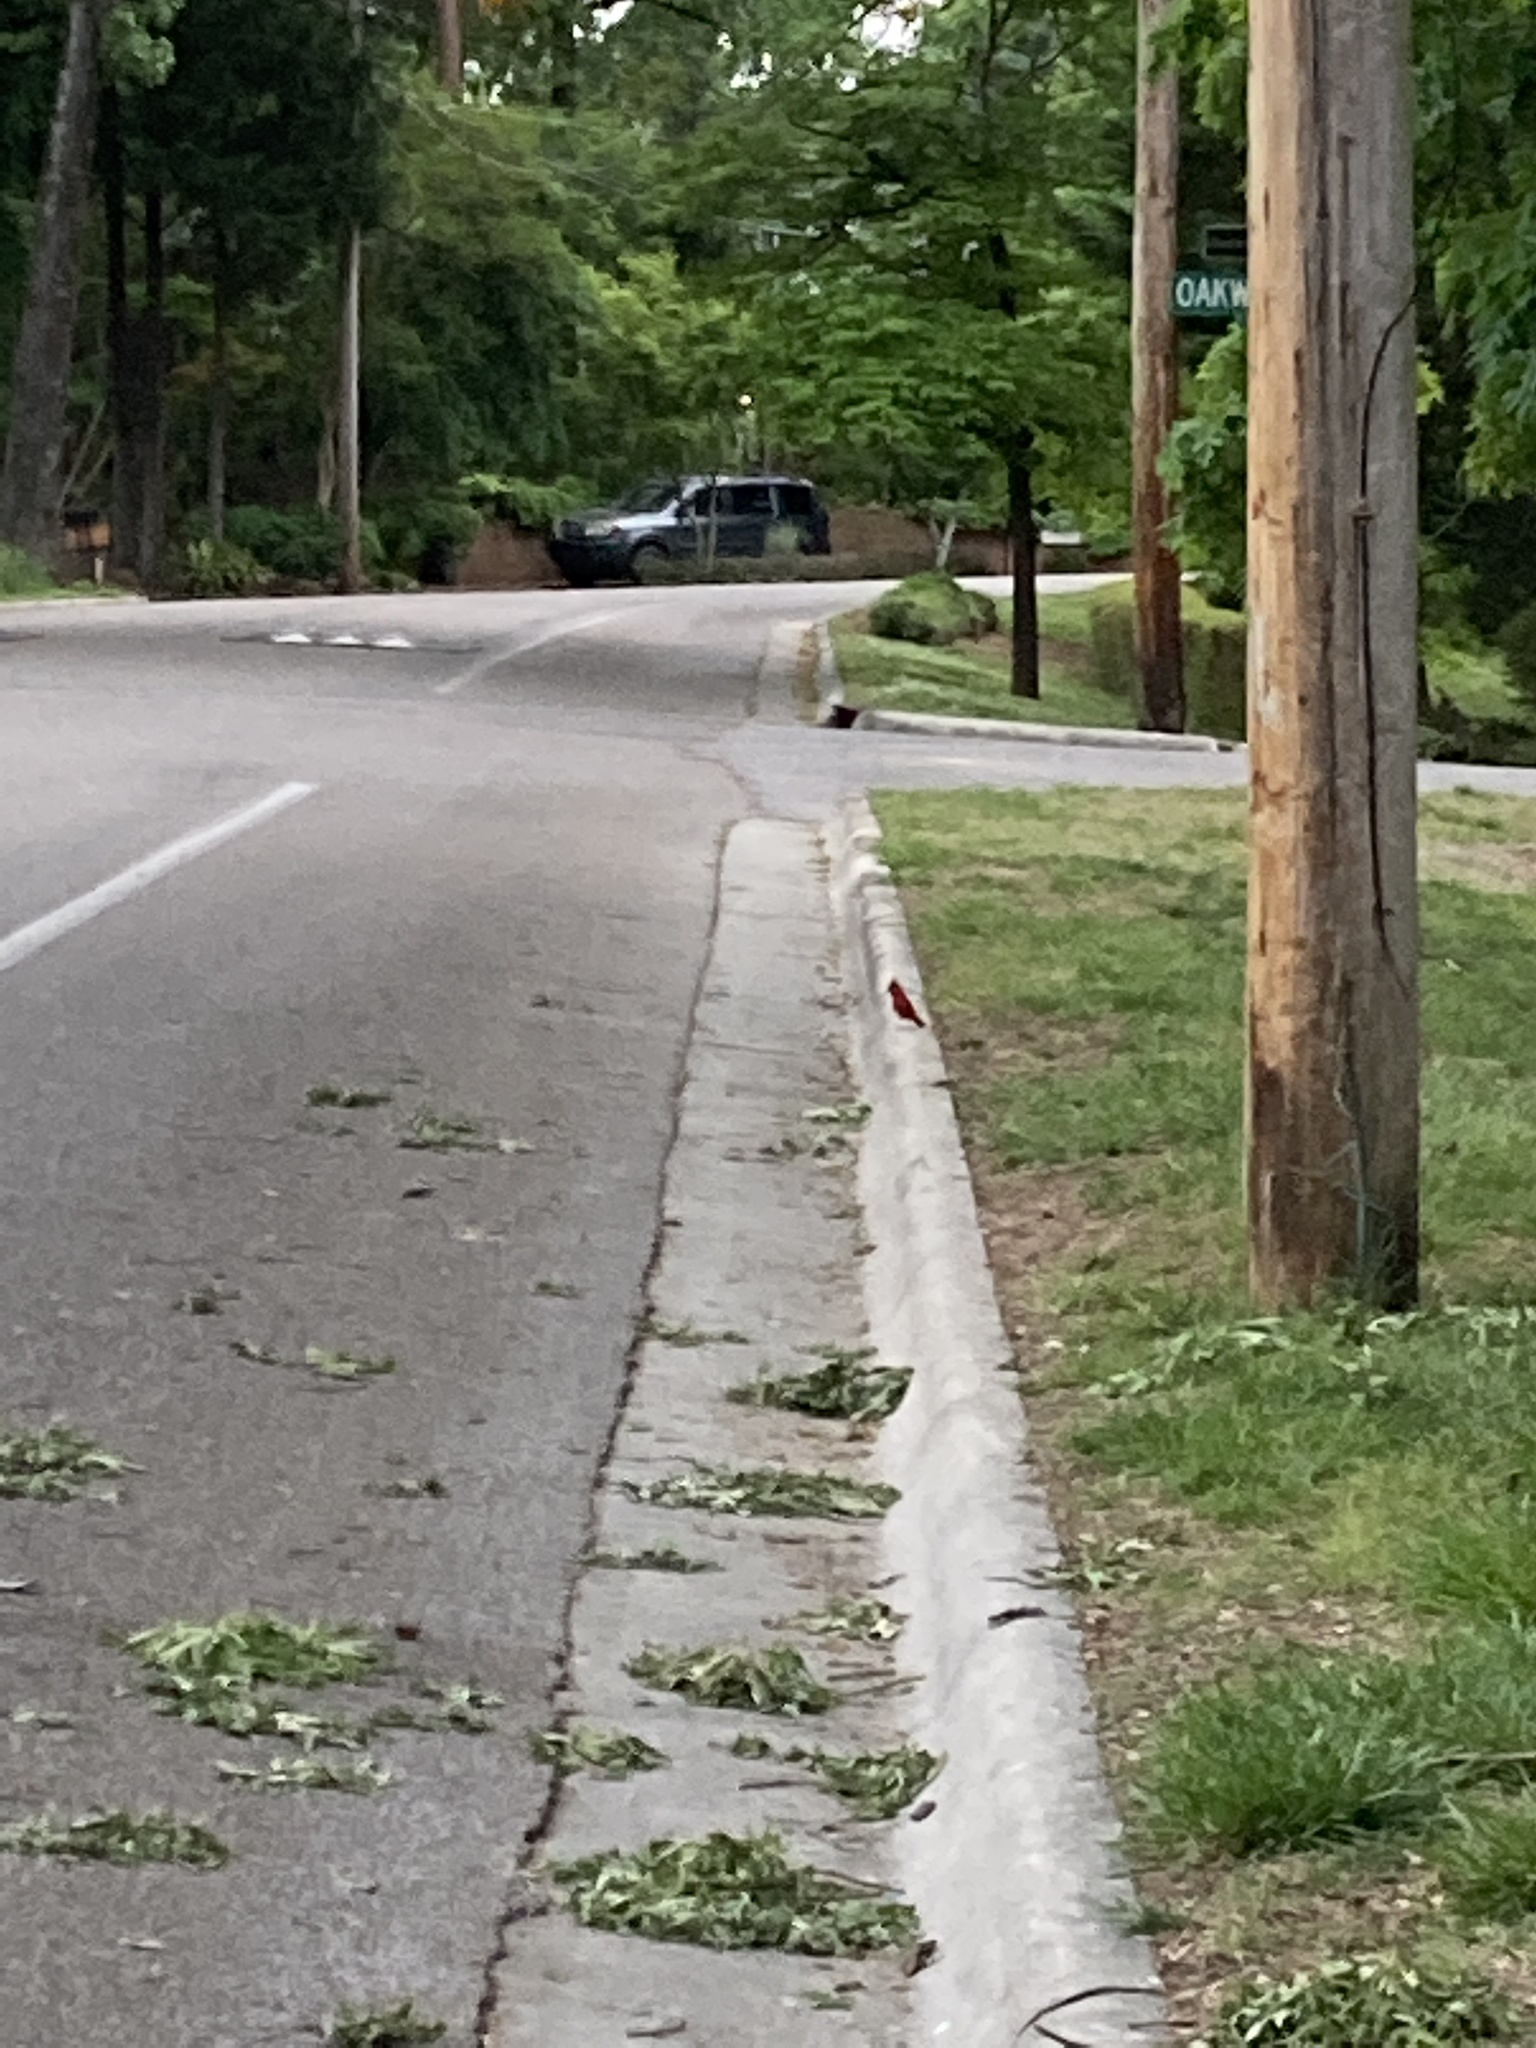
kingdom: Animalia
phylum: Chordata
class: Aves
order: Passeriformes
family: Cardinalidae
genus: Cardinalis
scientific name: Cardinalis cardinalis
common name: Northern cardinal
